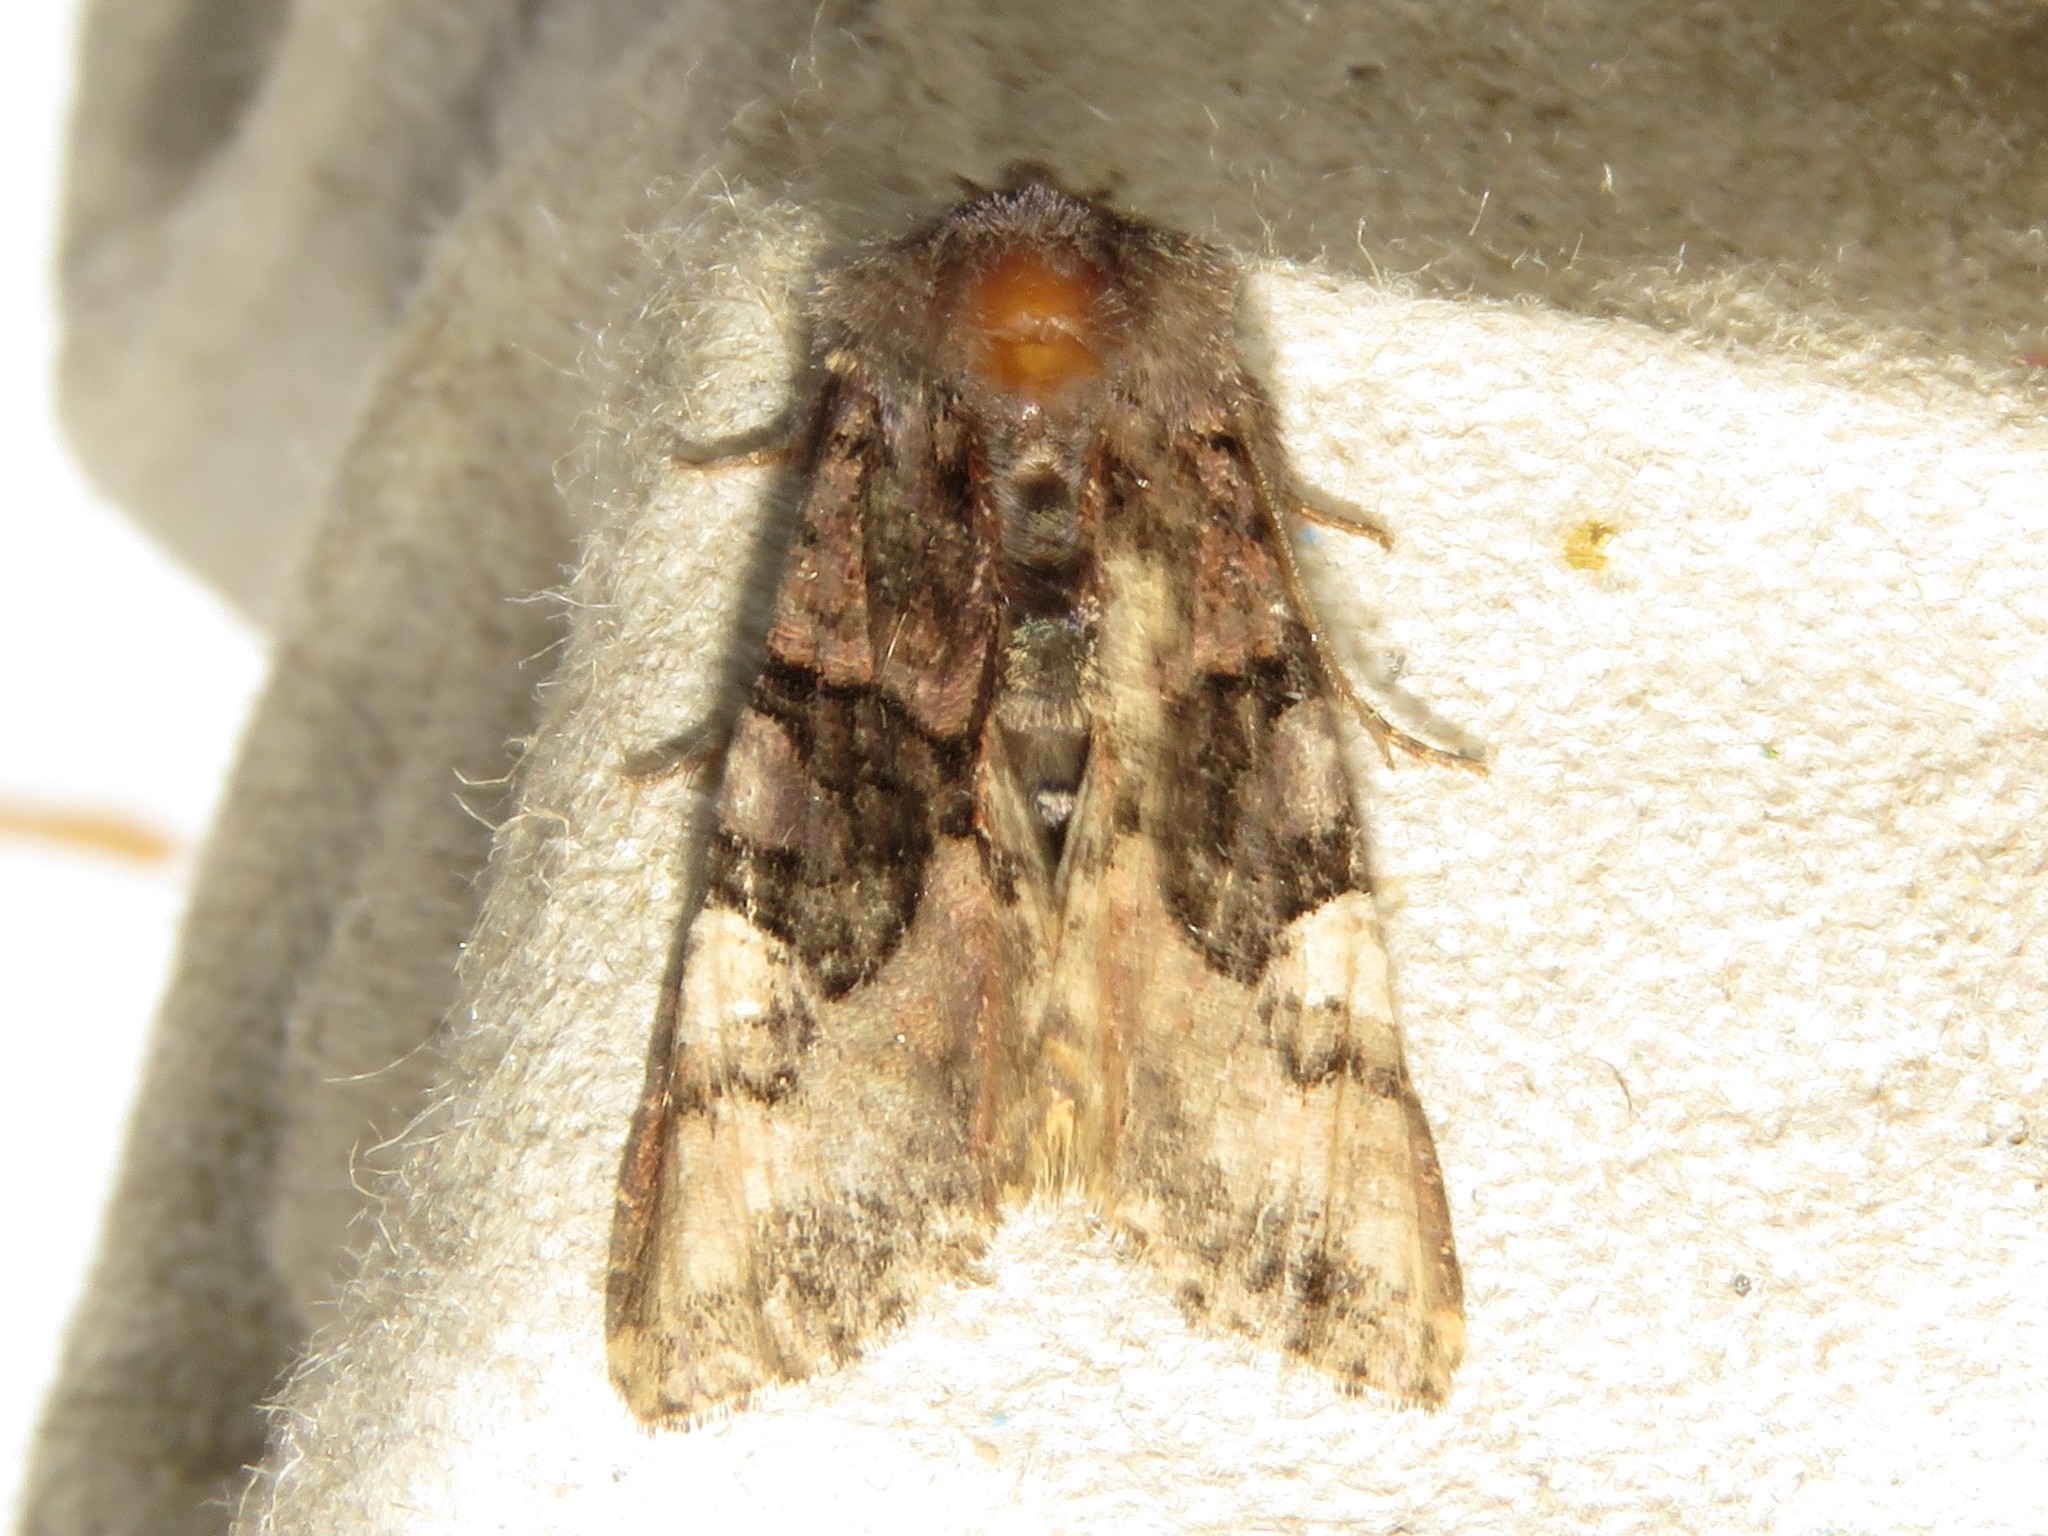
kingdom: Animalia
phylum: Arthropoda
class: Insecta
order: Lepidoptera
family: Noctuidae
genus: Euplexia
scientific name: Euplexia benesimilis
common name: American angle shades
